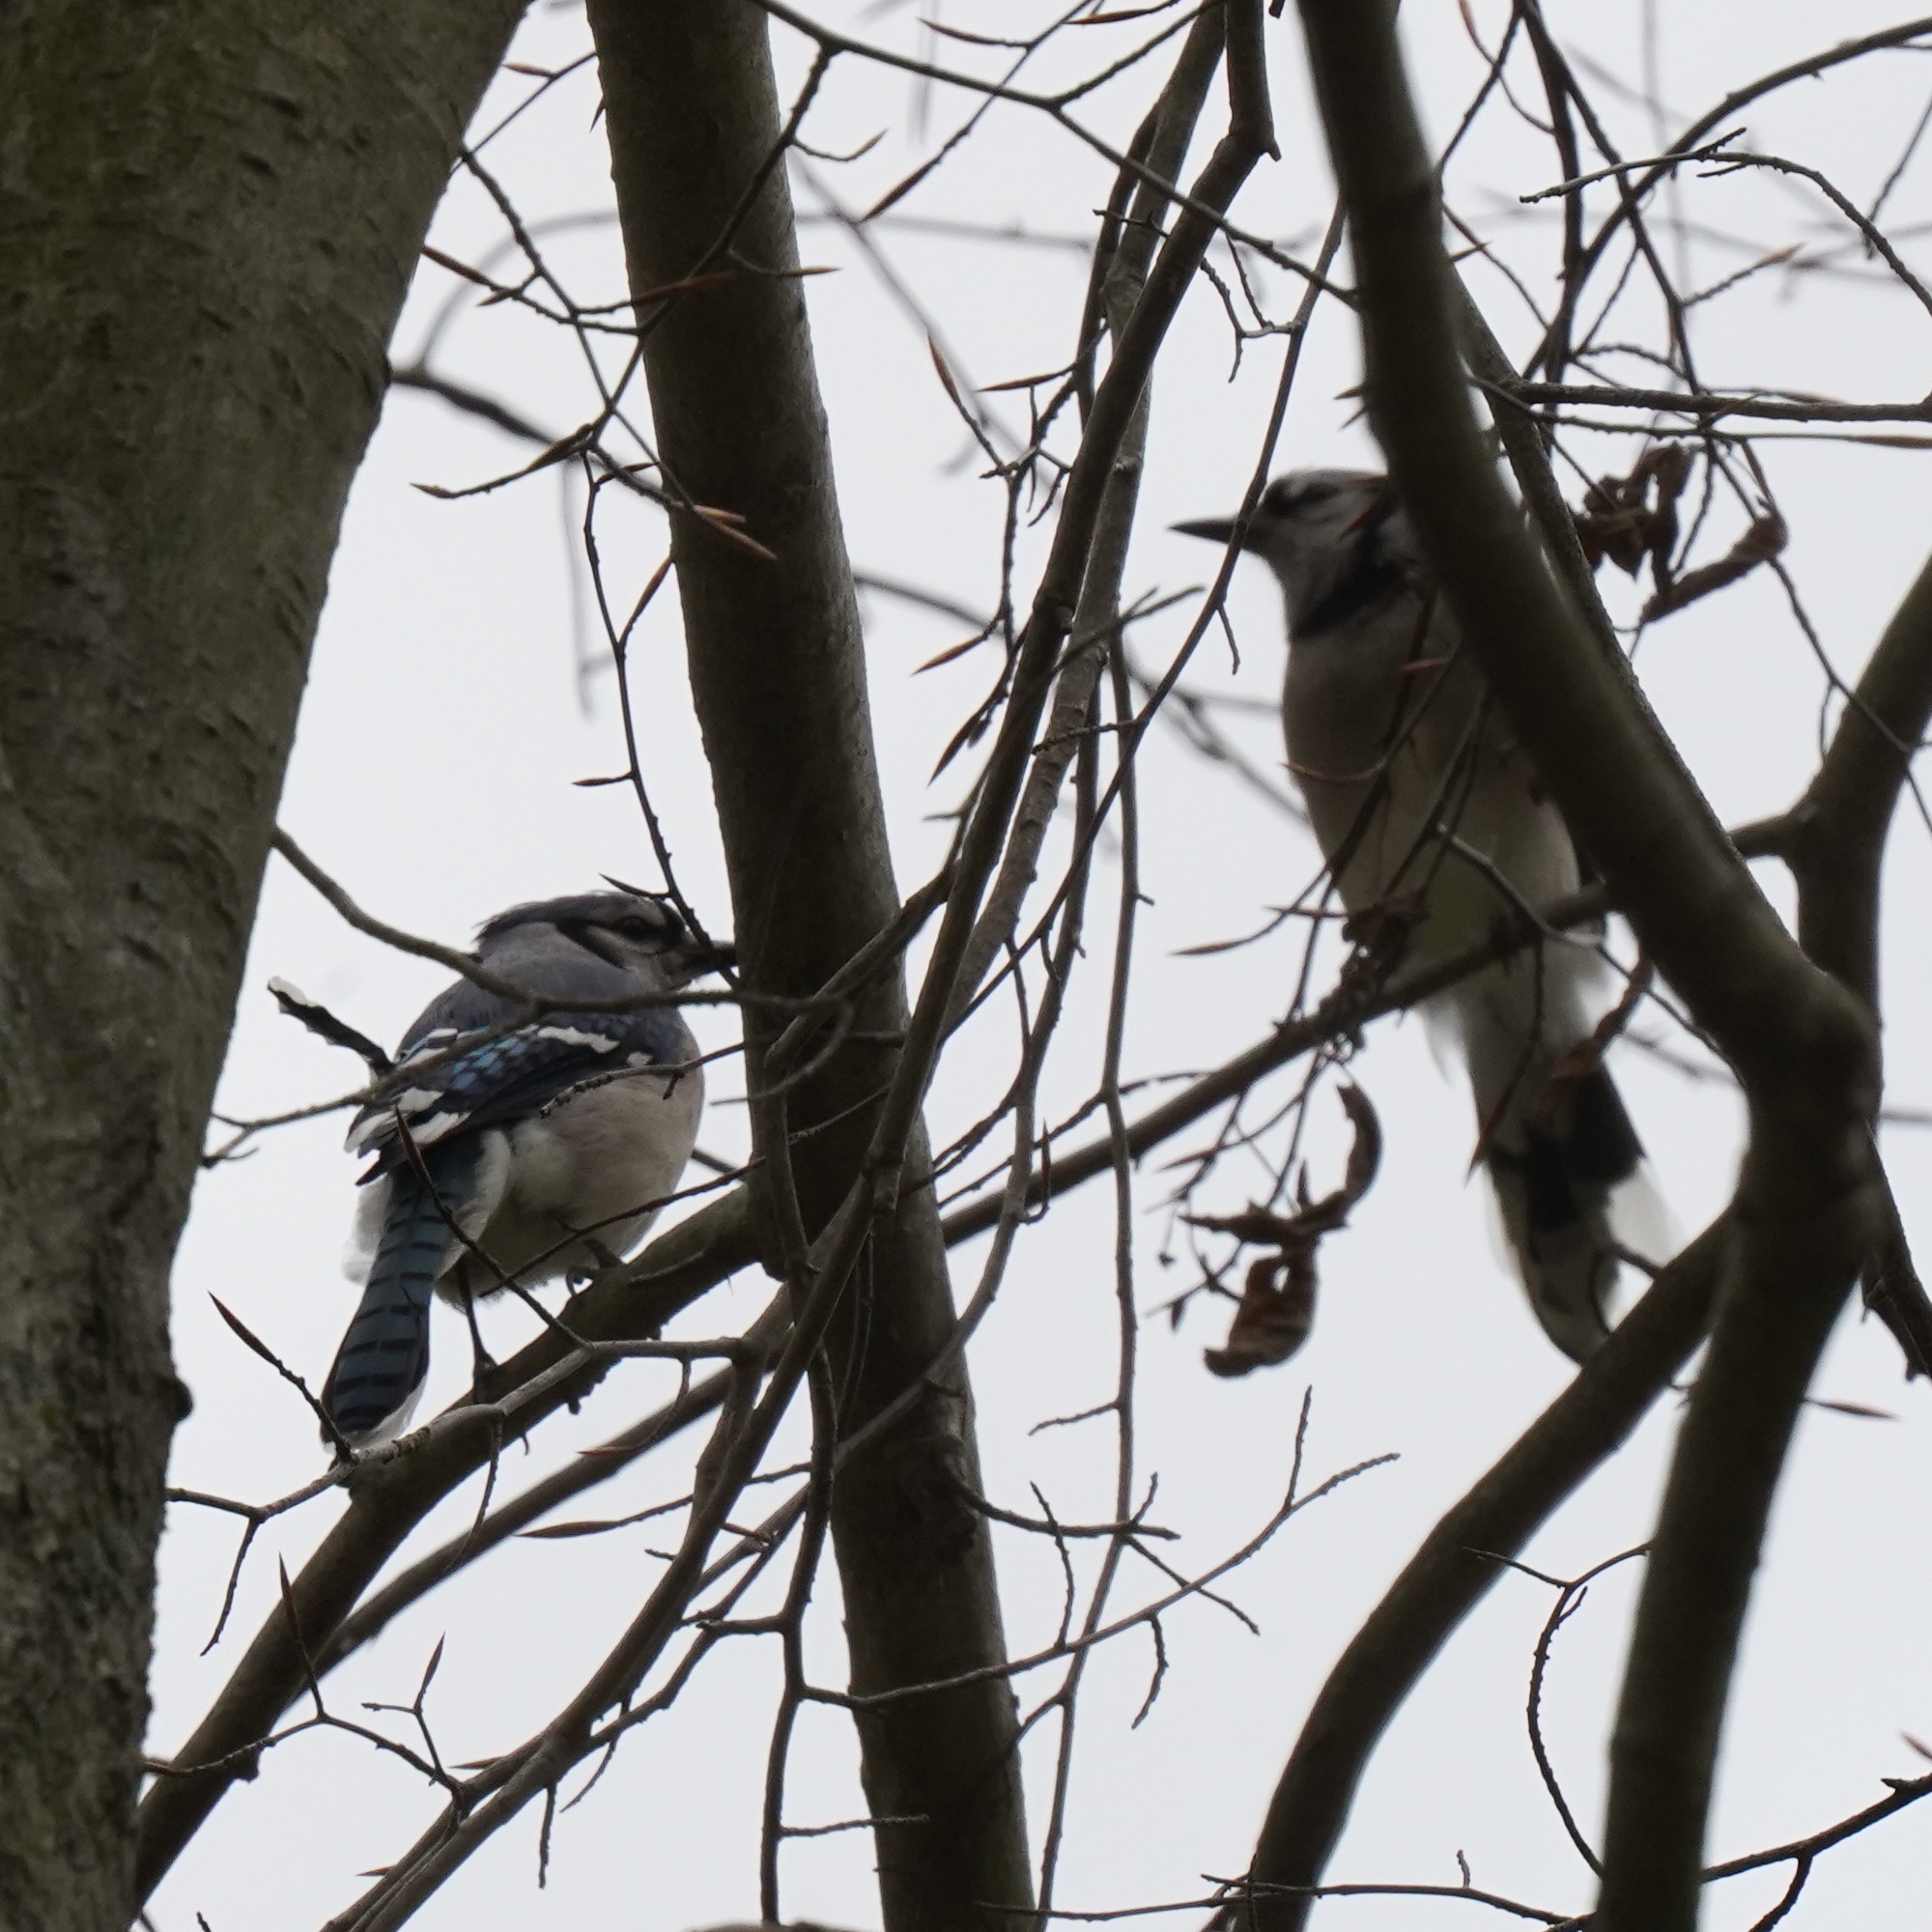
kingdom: Animalia
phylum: Chordata
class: Aves
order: Passeriformes
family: Corvidae
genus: Cyanocitta
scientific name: Cyanocitta cristata
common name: Blue jay
